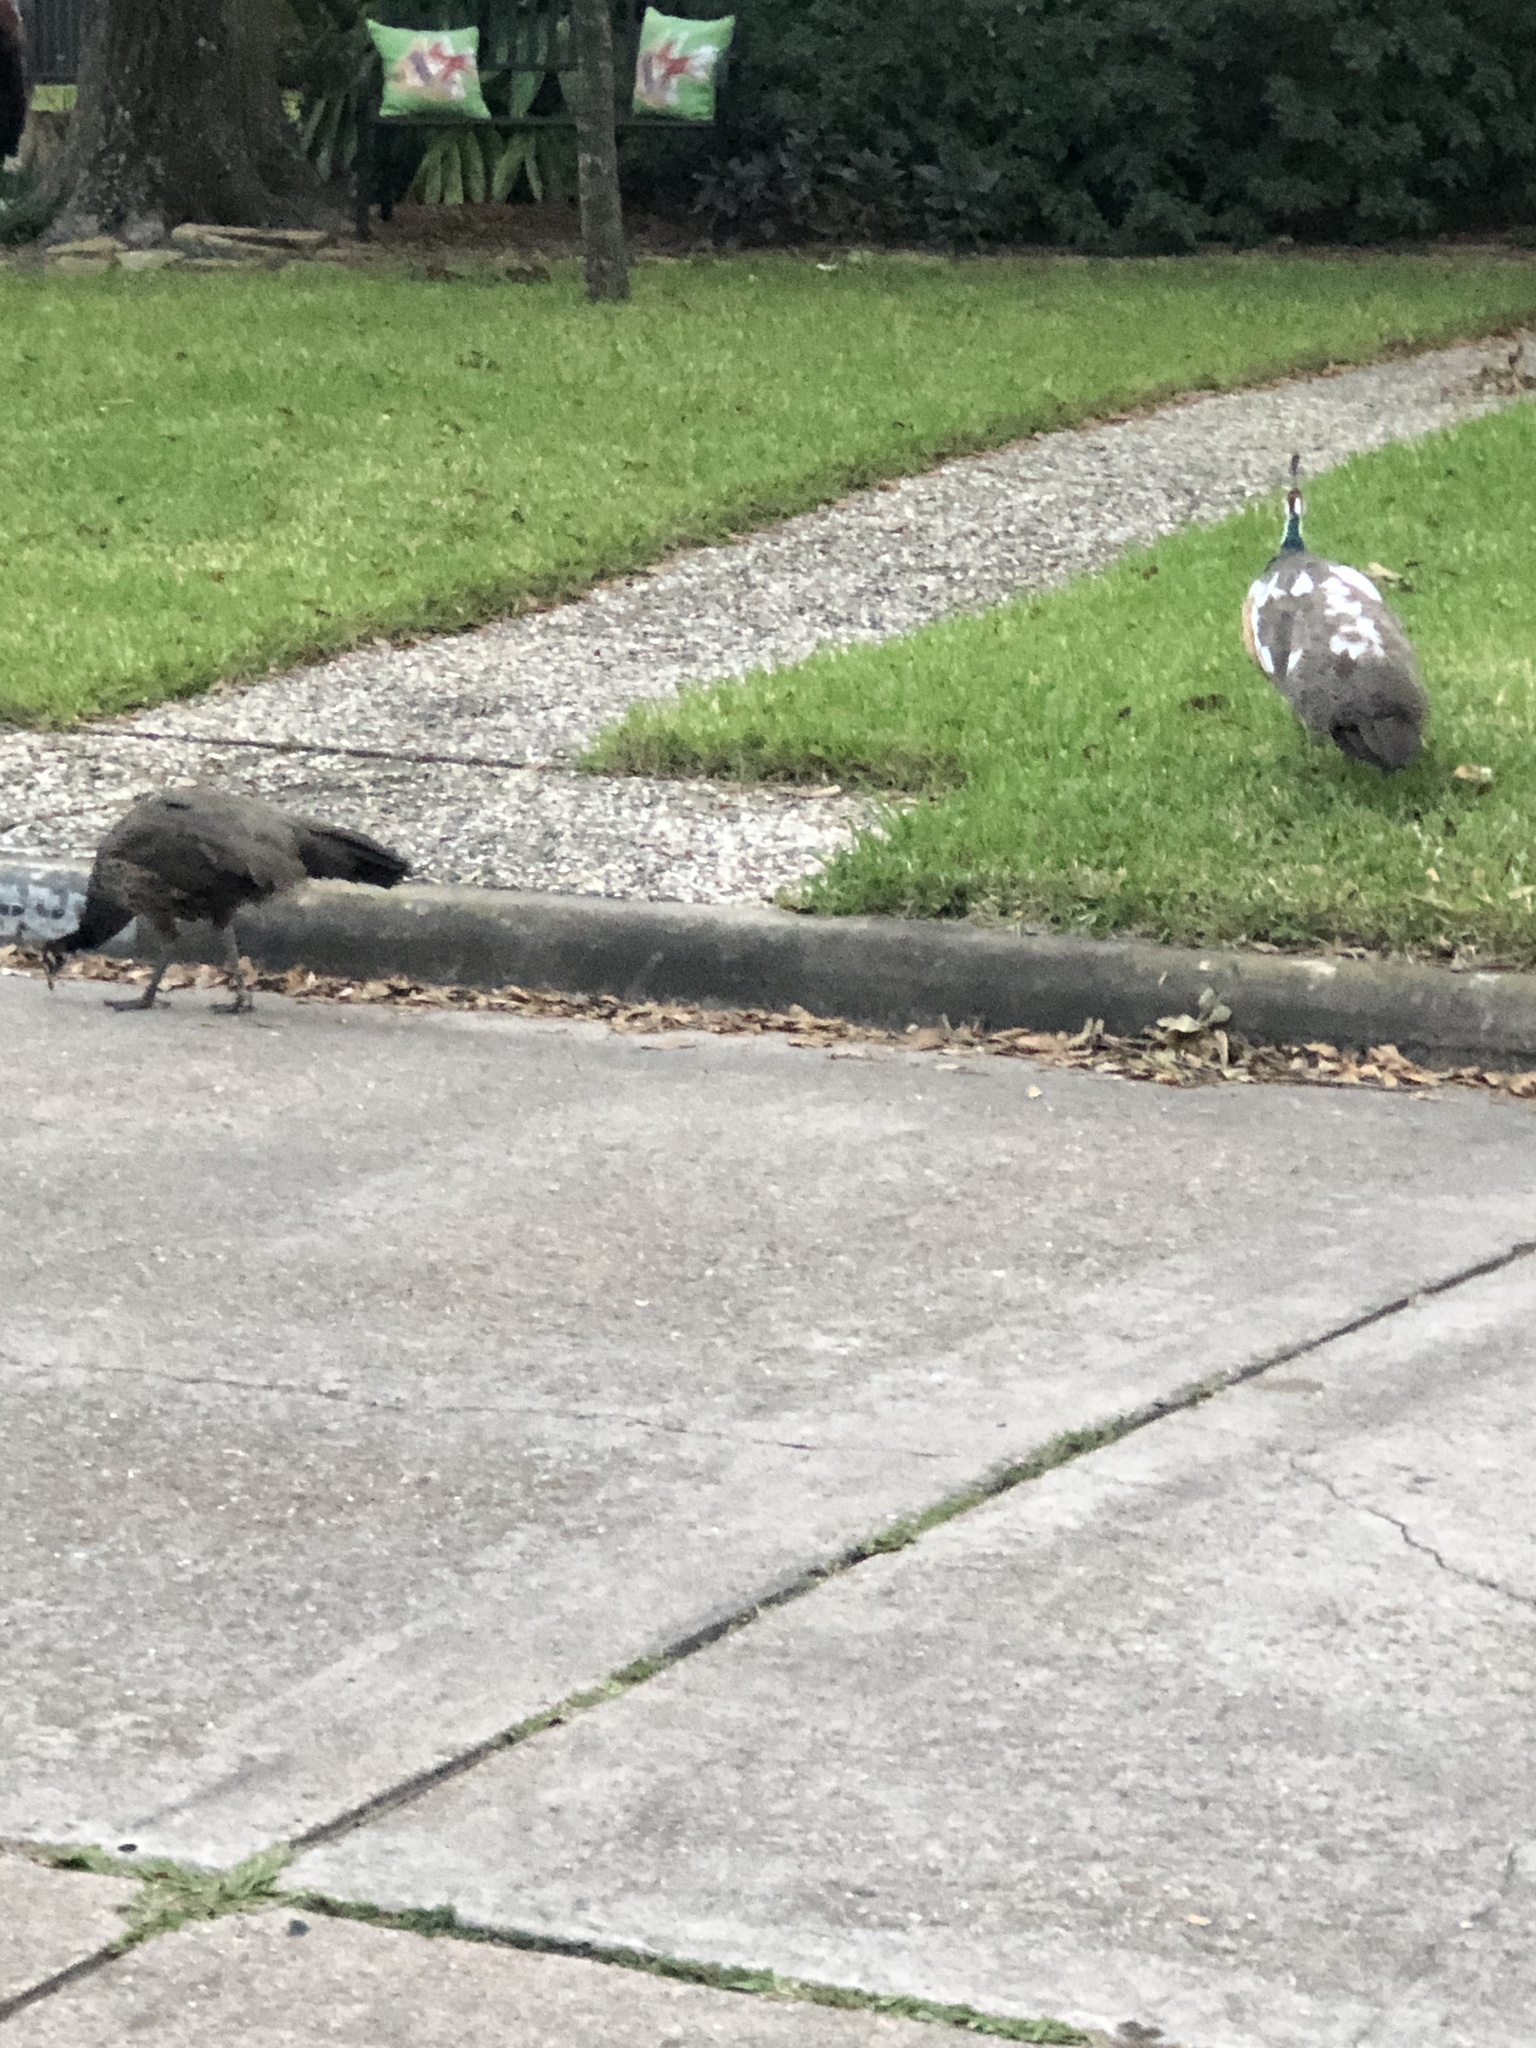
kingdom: Animalia
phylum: Chordata
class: Aves
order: Galliformes
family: Phasianidae
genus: Pavo
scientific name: Pavo cristatus
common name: Indian peafowl
